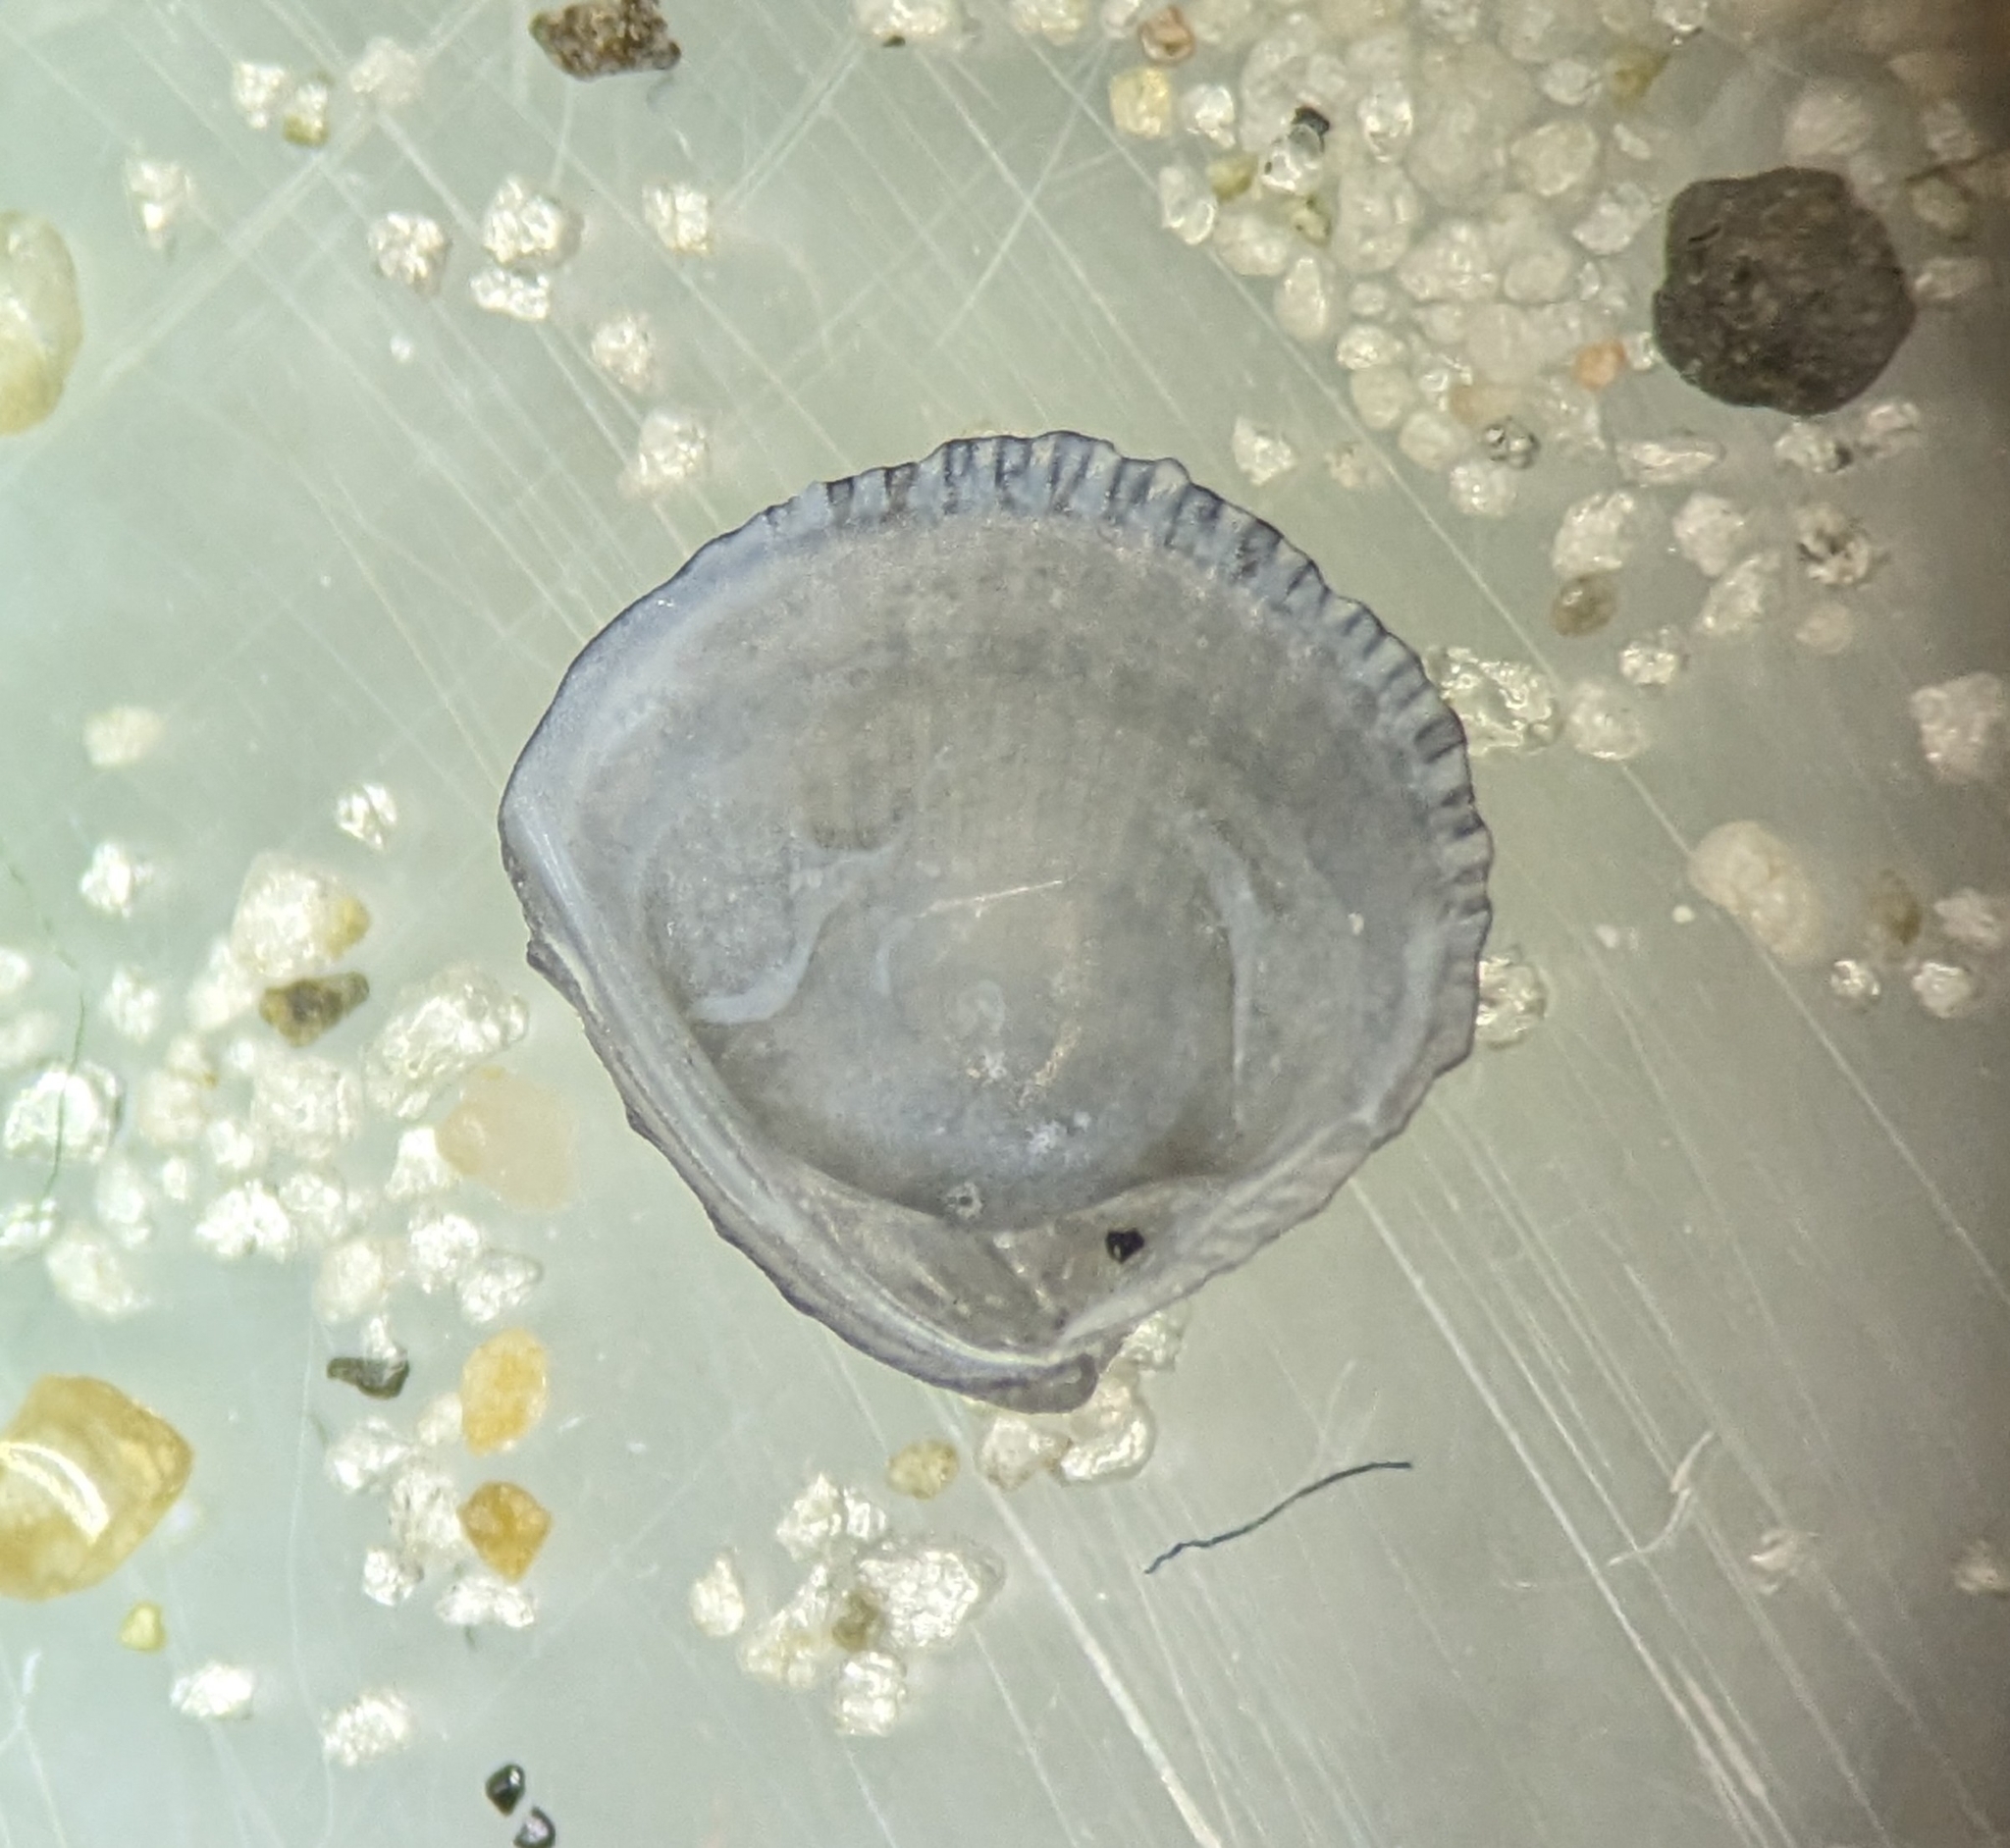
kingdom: Animalia
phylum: Mollusca
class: Bivalvia
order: Venerida
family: Veneridae
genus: Chione
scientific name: Chione elevata
